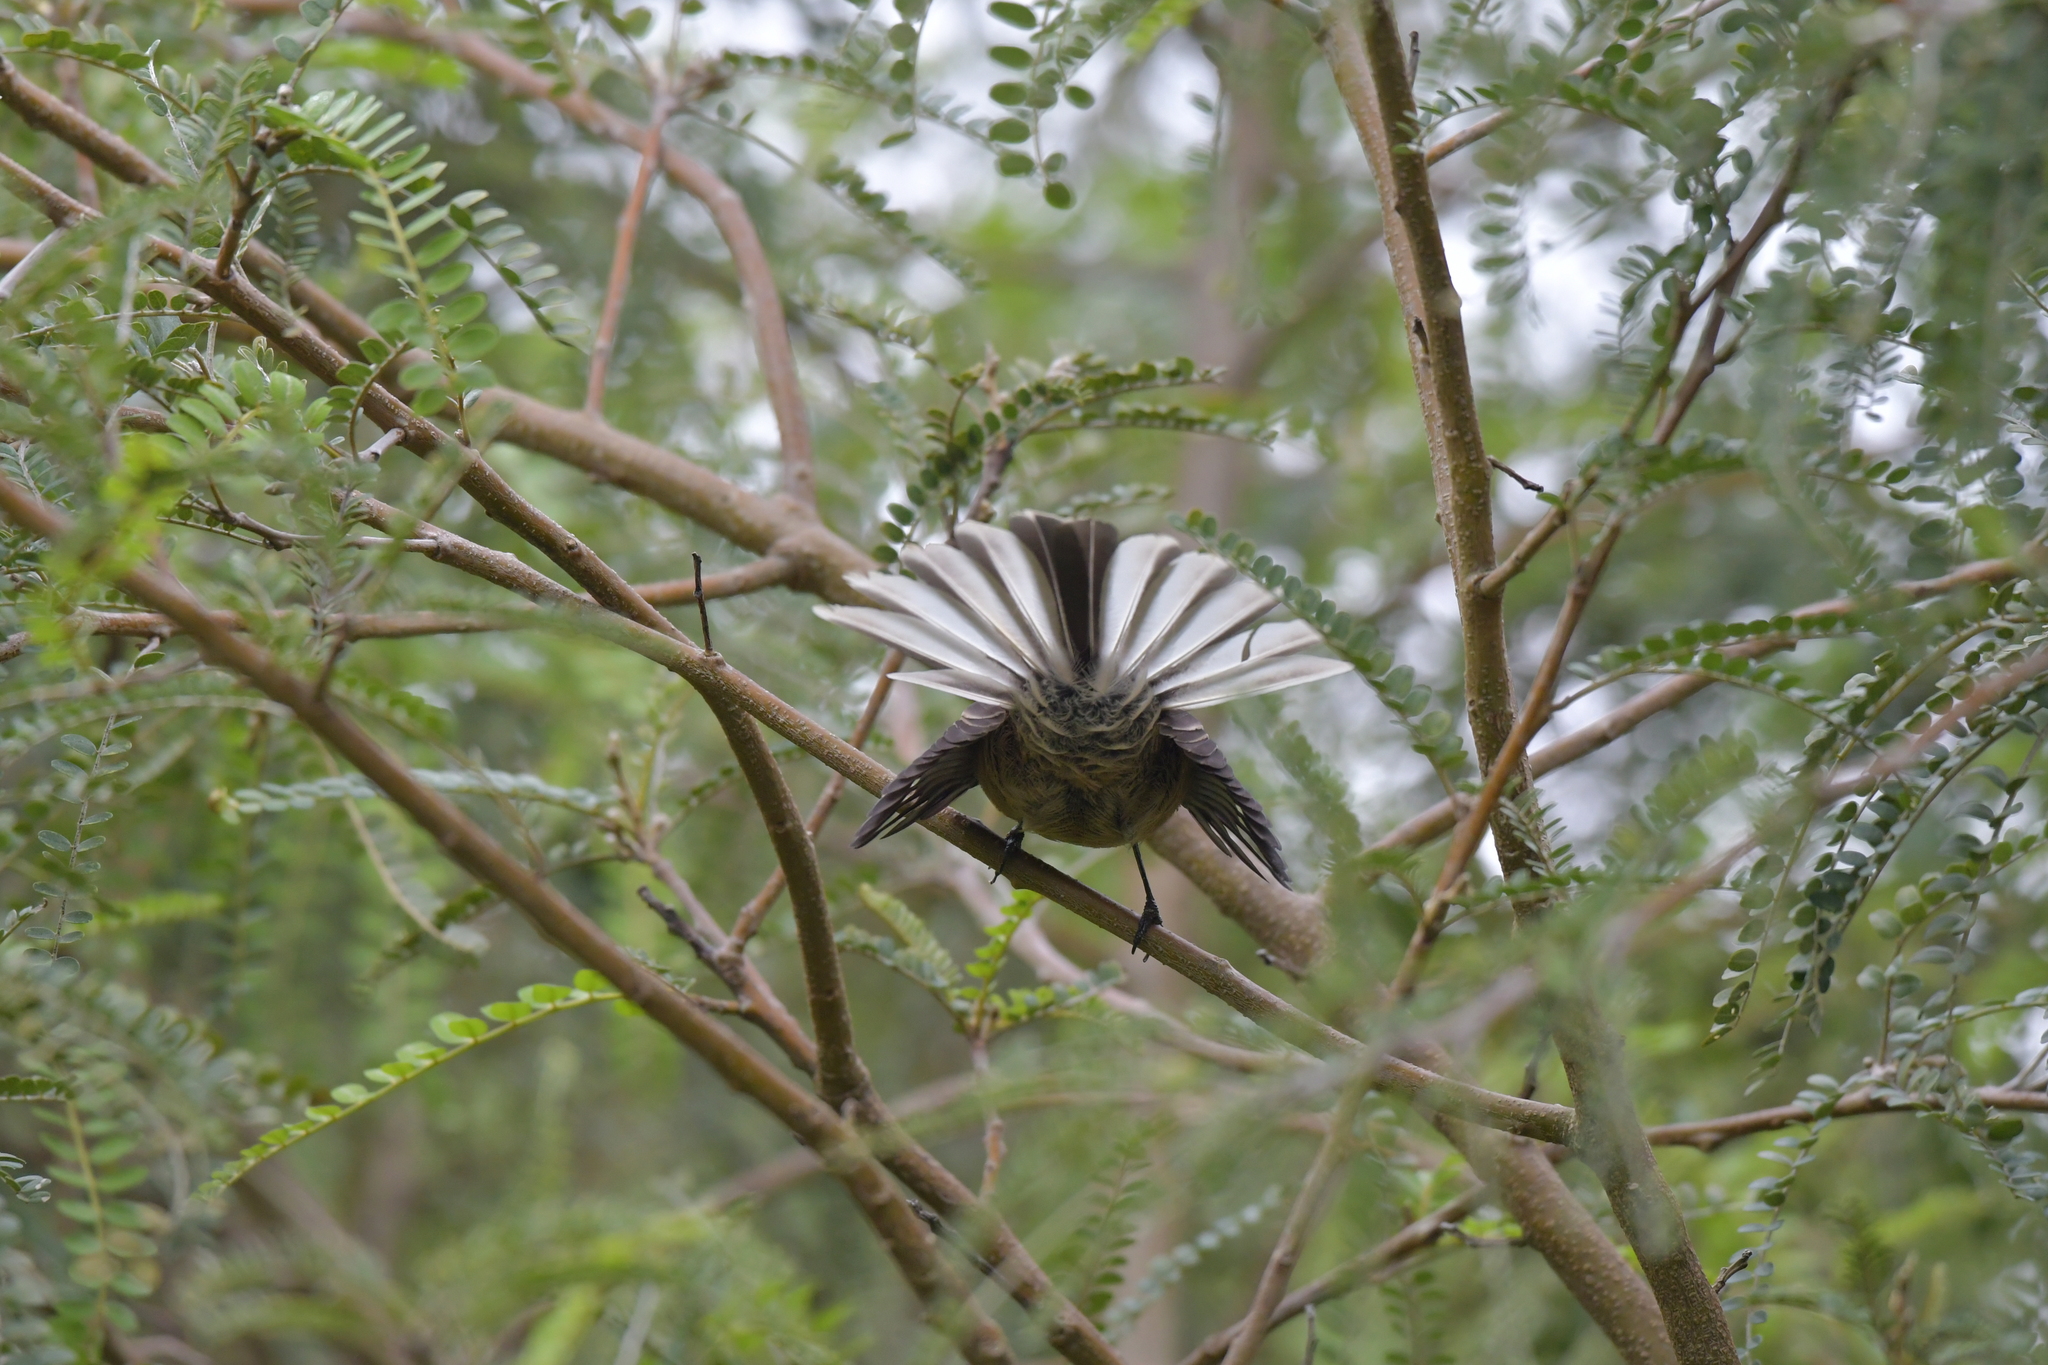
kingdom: Animalia
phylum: Chordata
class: Aves
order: Passeriformes
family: Rhipiduridae
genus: Rhipidura
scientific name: Rhipidura fuliginosa
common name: New zealand fantail
